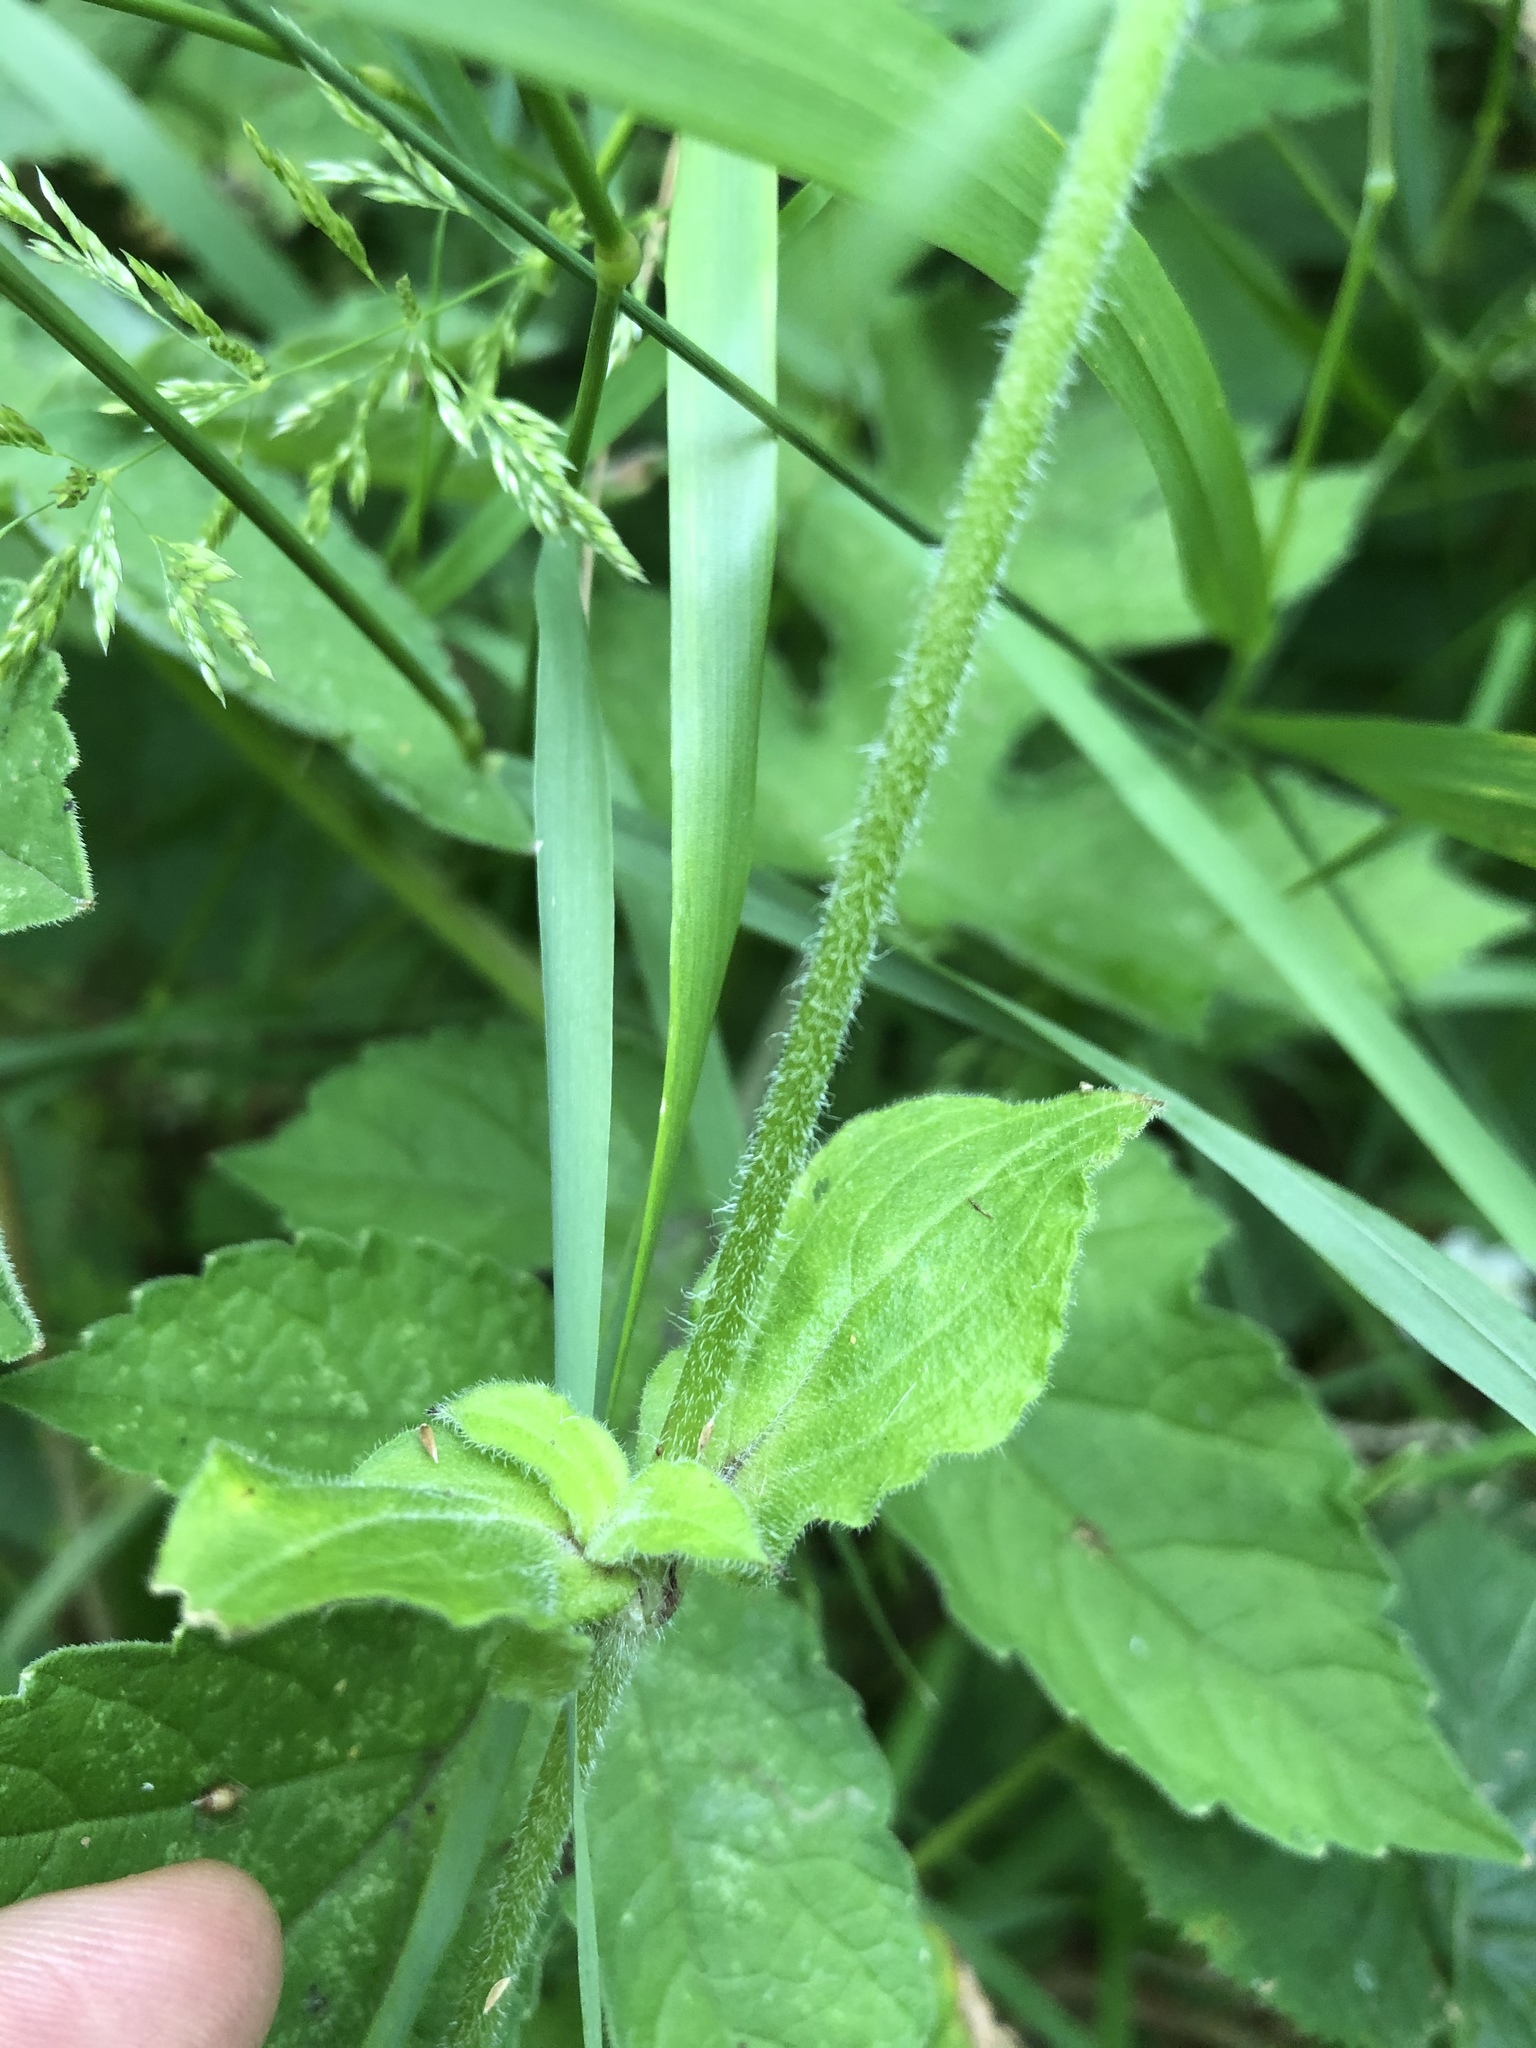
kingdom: Plantae
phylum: Tracheophyta
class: Magnoliopsida
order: Caryophyllales
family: Caryophyllaceae
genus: Silene
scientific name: Silene dioica
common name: Red campion
